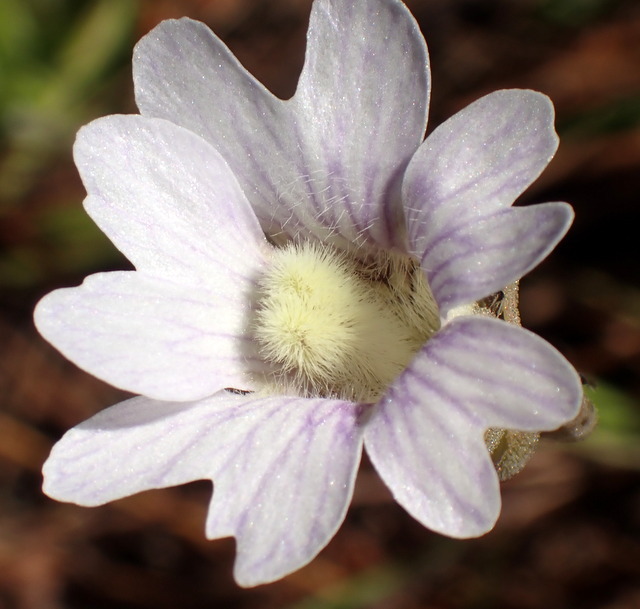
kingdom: Plantae
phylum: Tracheophyta
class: Magnoliopsida
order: Lamiales
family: Lentibulariaceae
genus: Pinguicula
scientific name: Pinguicula caerulea
